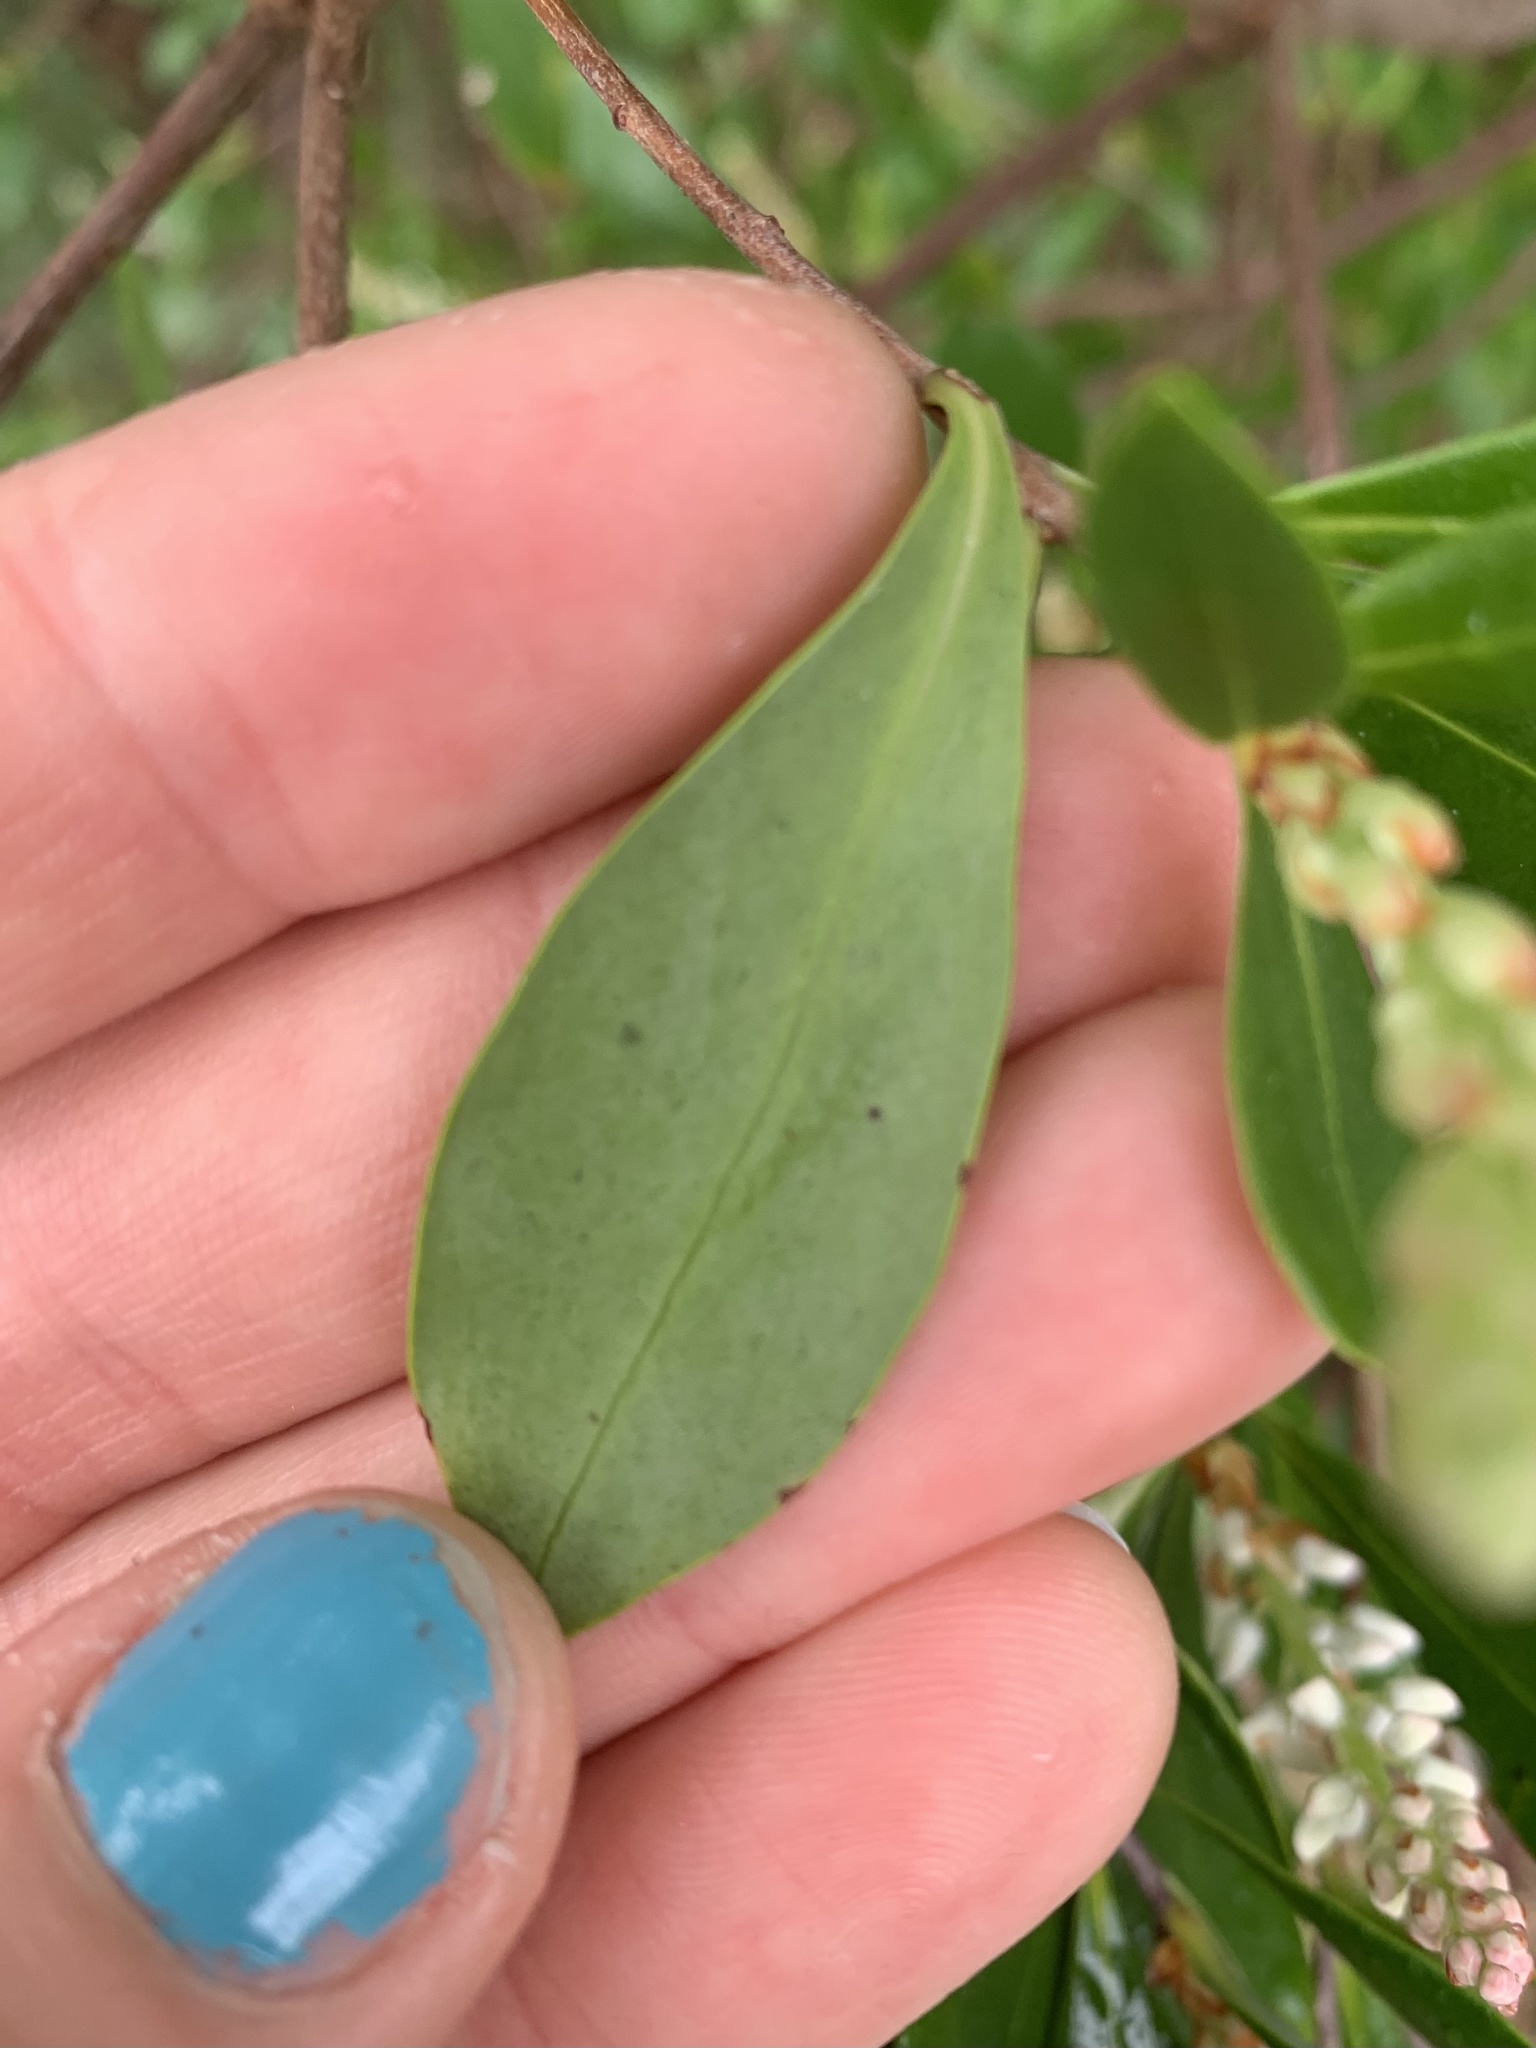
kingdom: Plantae
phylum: Tracheophyta
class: Magnoliopsida
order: Ericales
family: Cyrillaceae
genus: Cliftonia
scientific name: Cliftonia monophylla
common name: Titi
